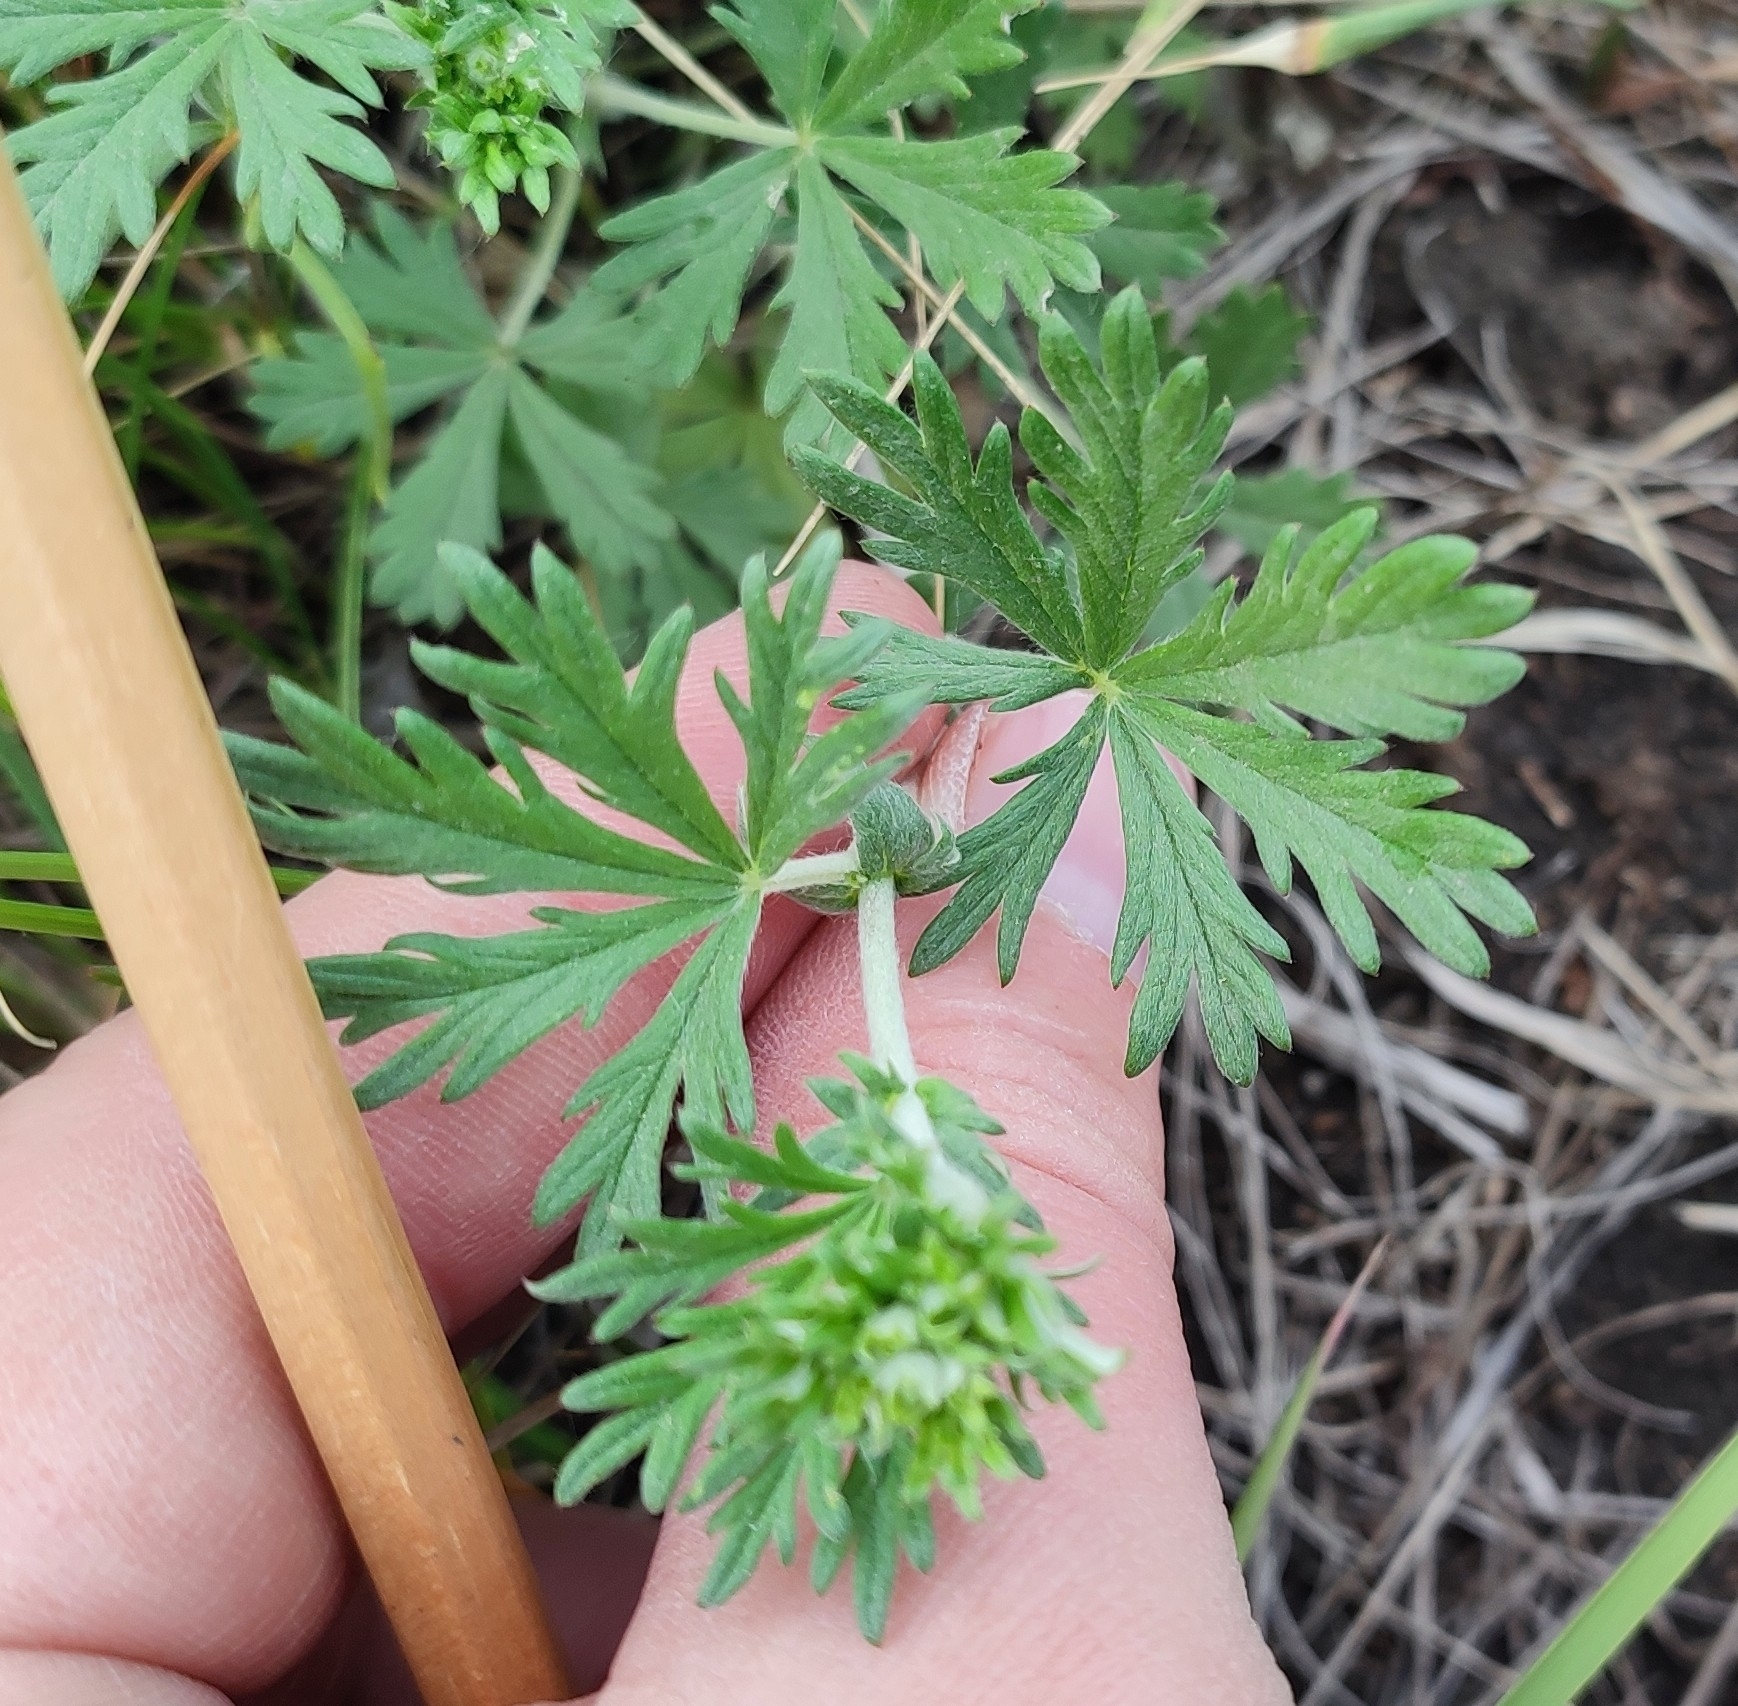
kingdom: Plantae
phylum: Tracheophyta
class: Magnoliopsida
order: Rosales
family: Rosaceae
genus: Potentilla
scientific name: Potentilla argentea
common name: Hoary cinquefoil
